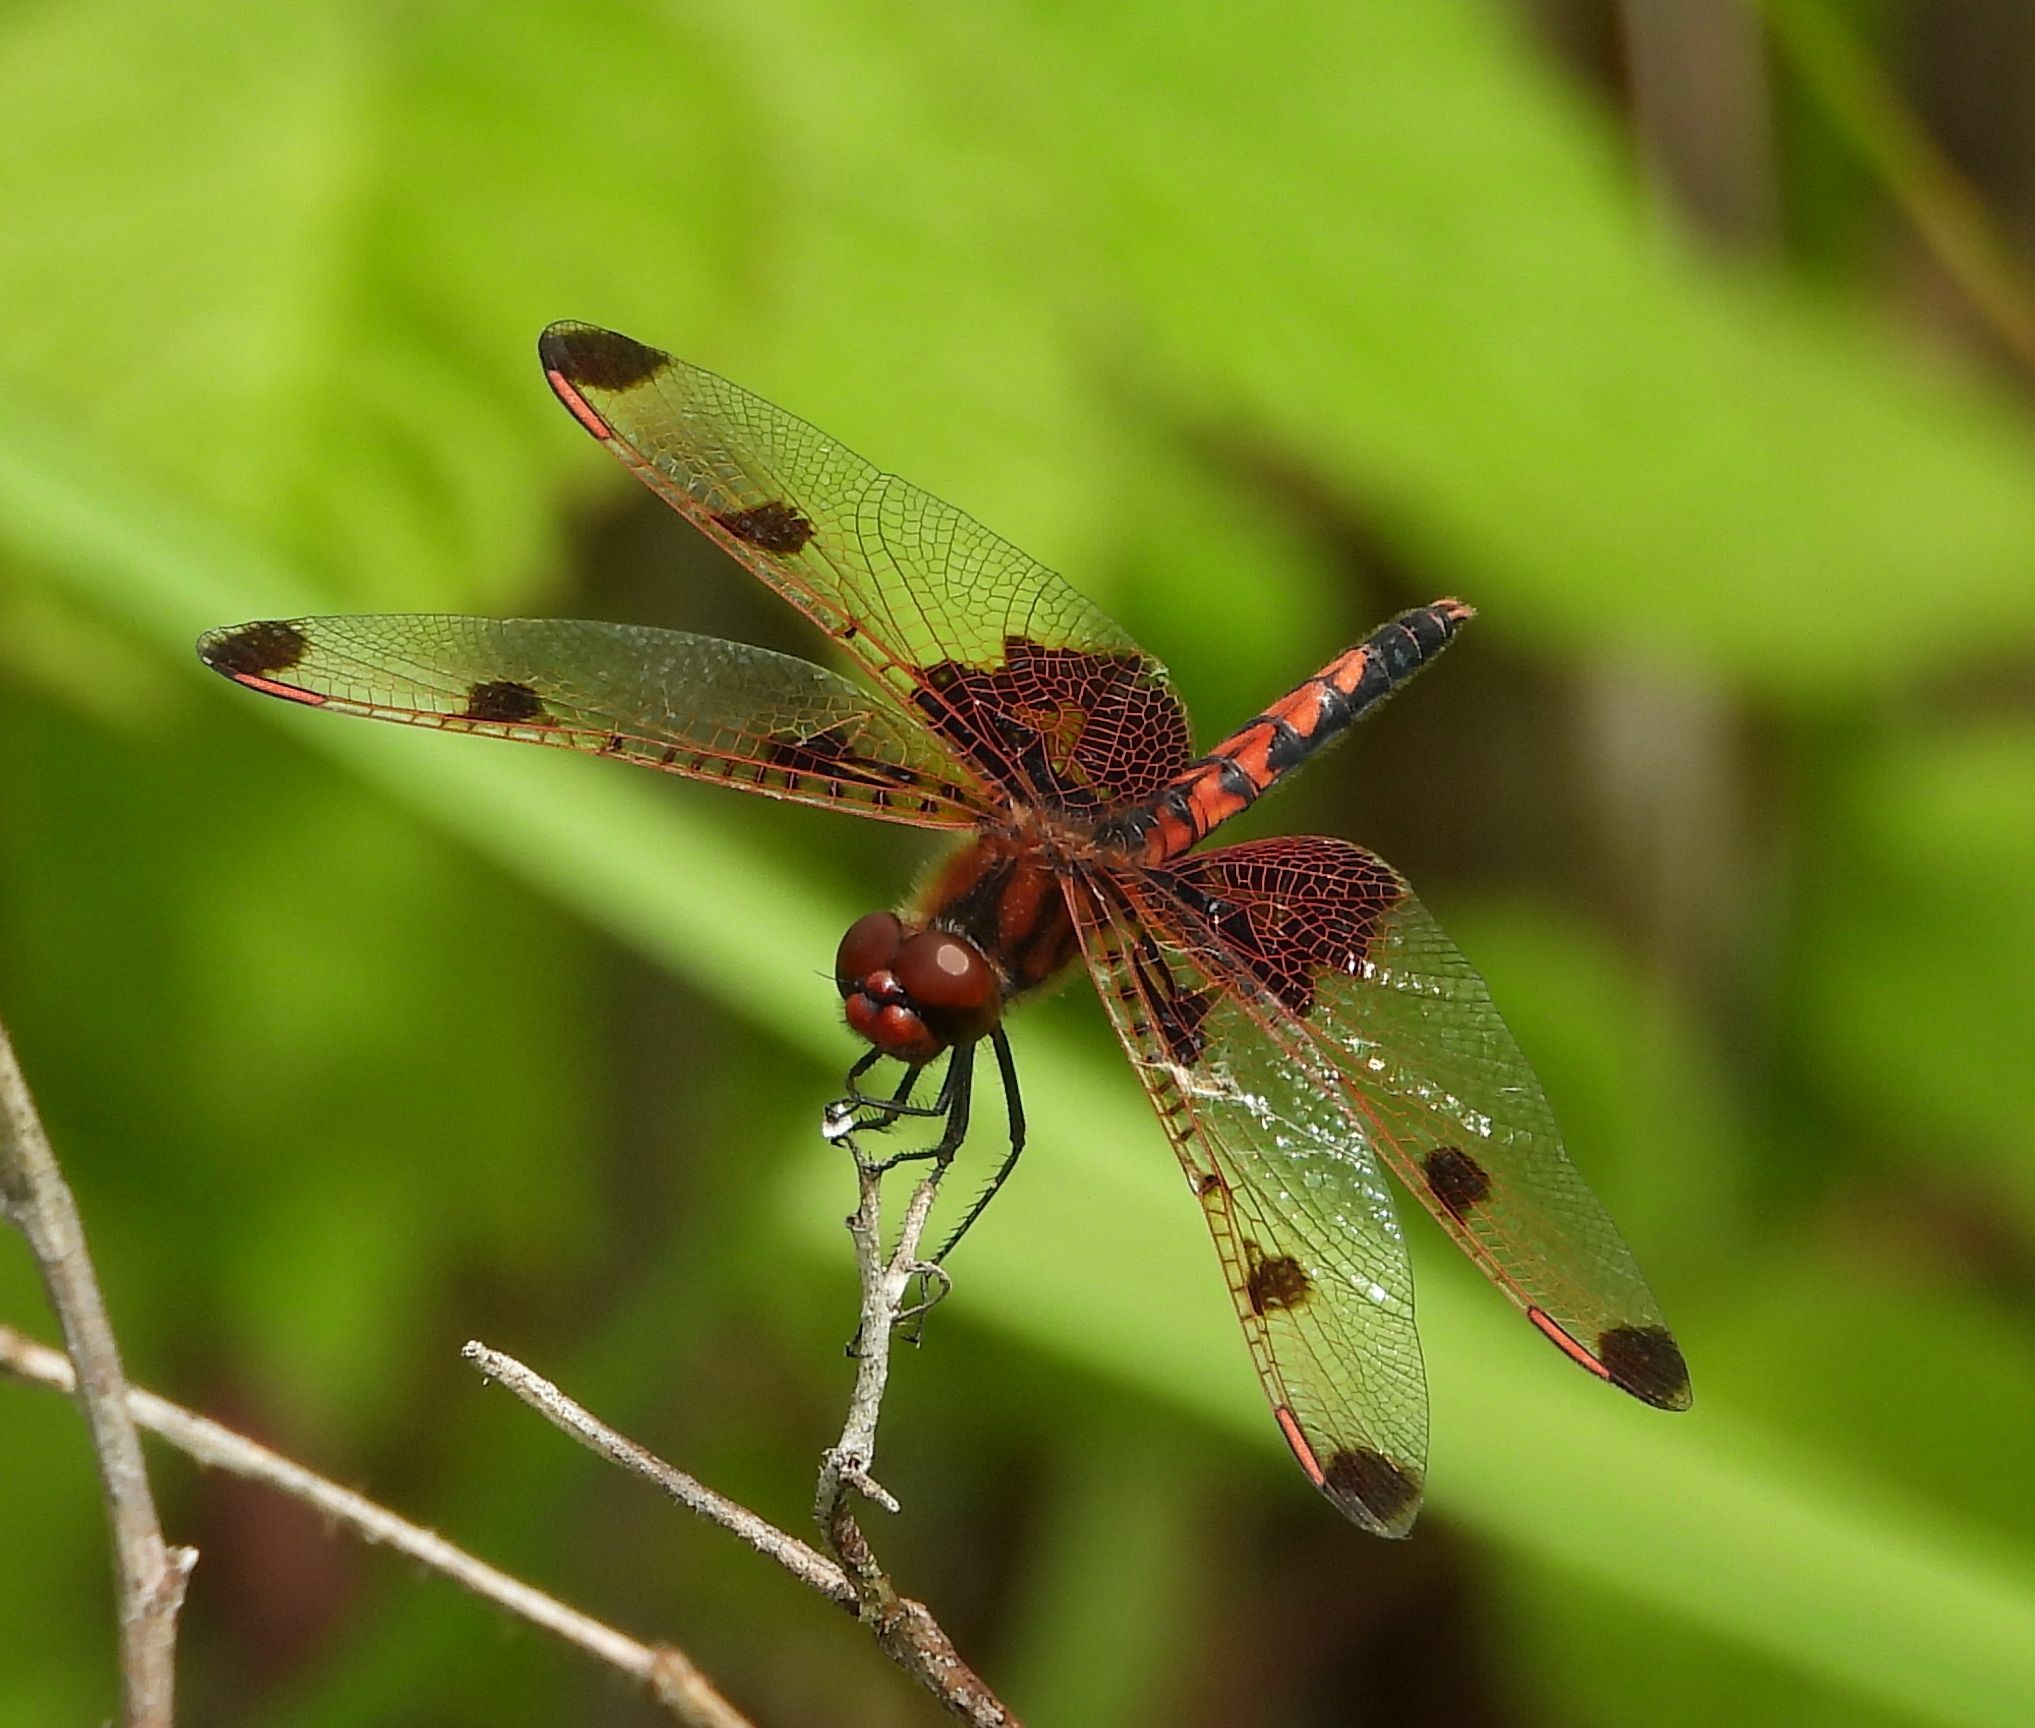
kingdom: Animalia
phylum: Arthropoda
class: Insecta
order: Odonata
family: Libellulidae
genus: Celithemis
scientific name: Celithemis elisa
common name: Calico pennant
